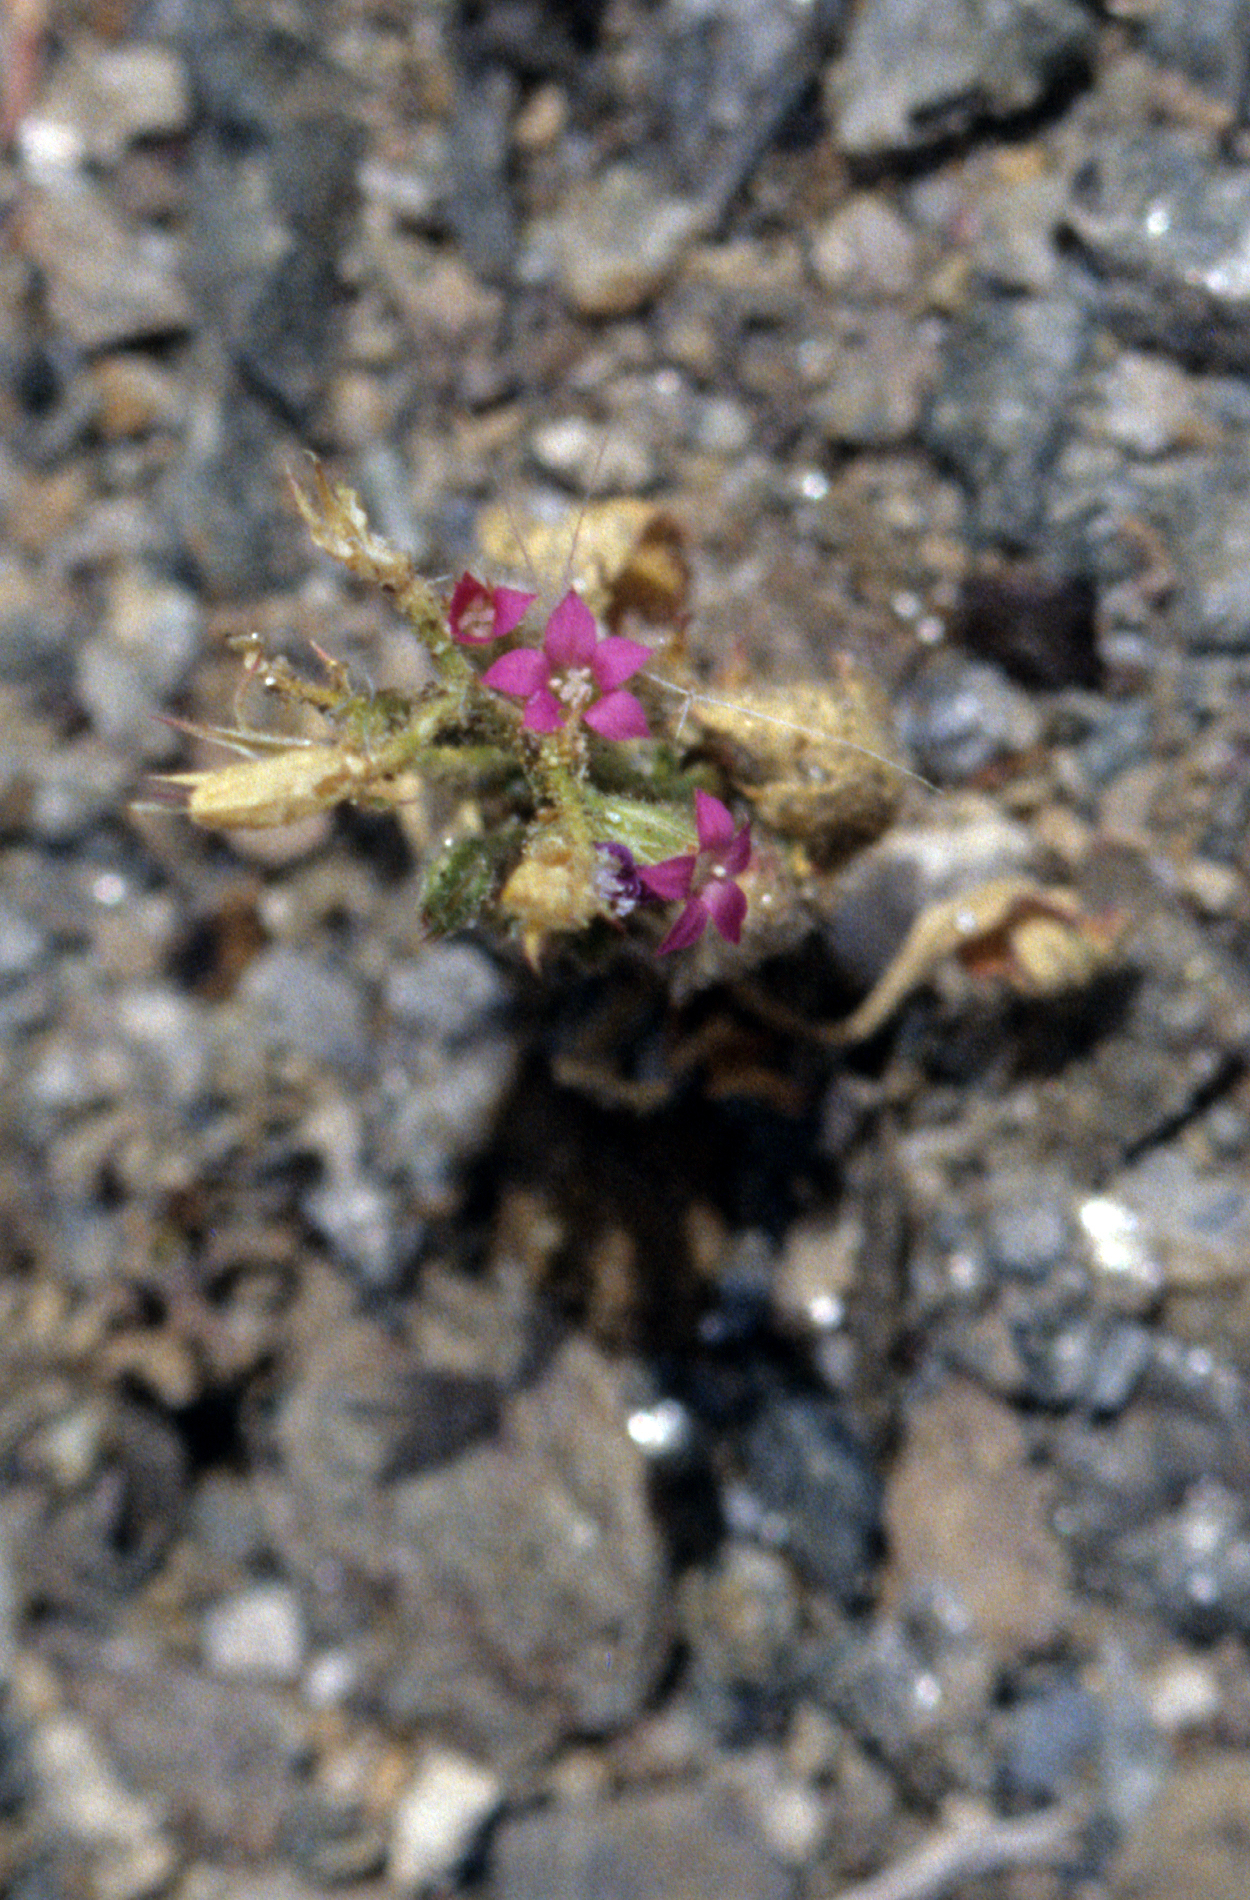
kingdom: Plantae
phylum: Tracheophyta
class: Magnoliopsida
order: Ericales
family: Polemoniaceae
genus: Aliciella
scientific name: Aliciella latifolia
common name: Broad-leaf gilia
